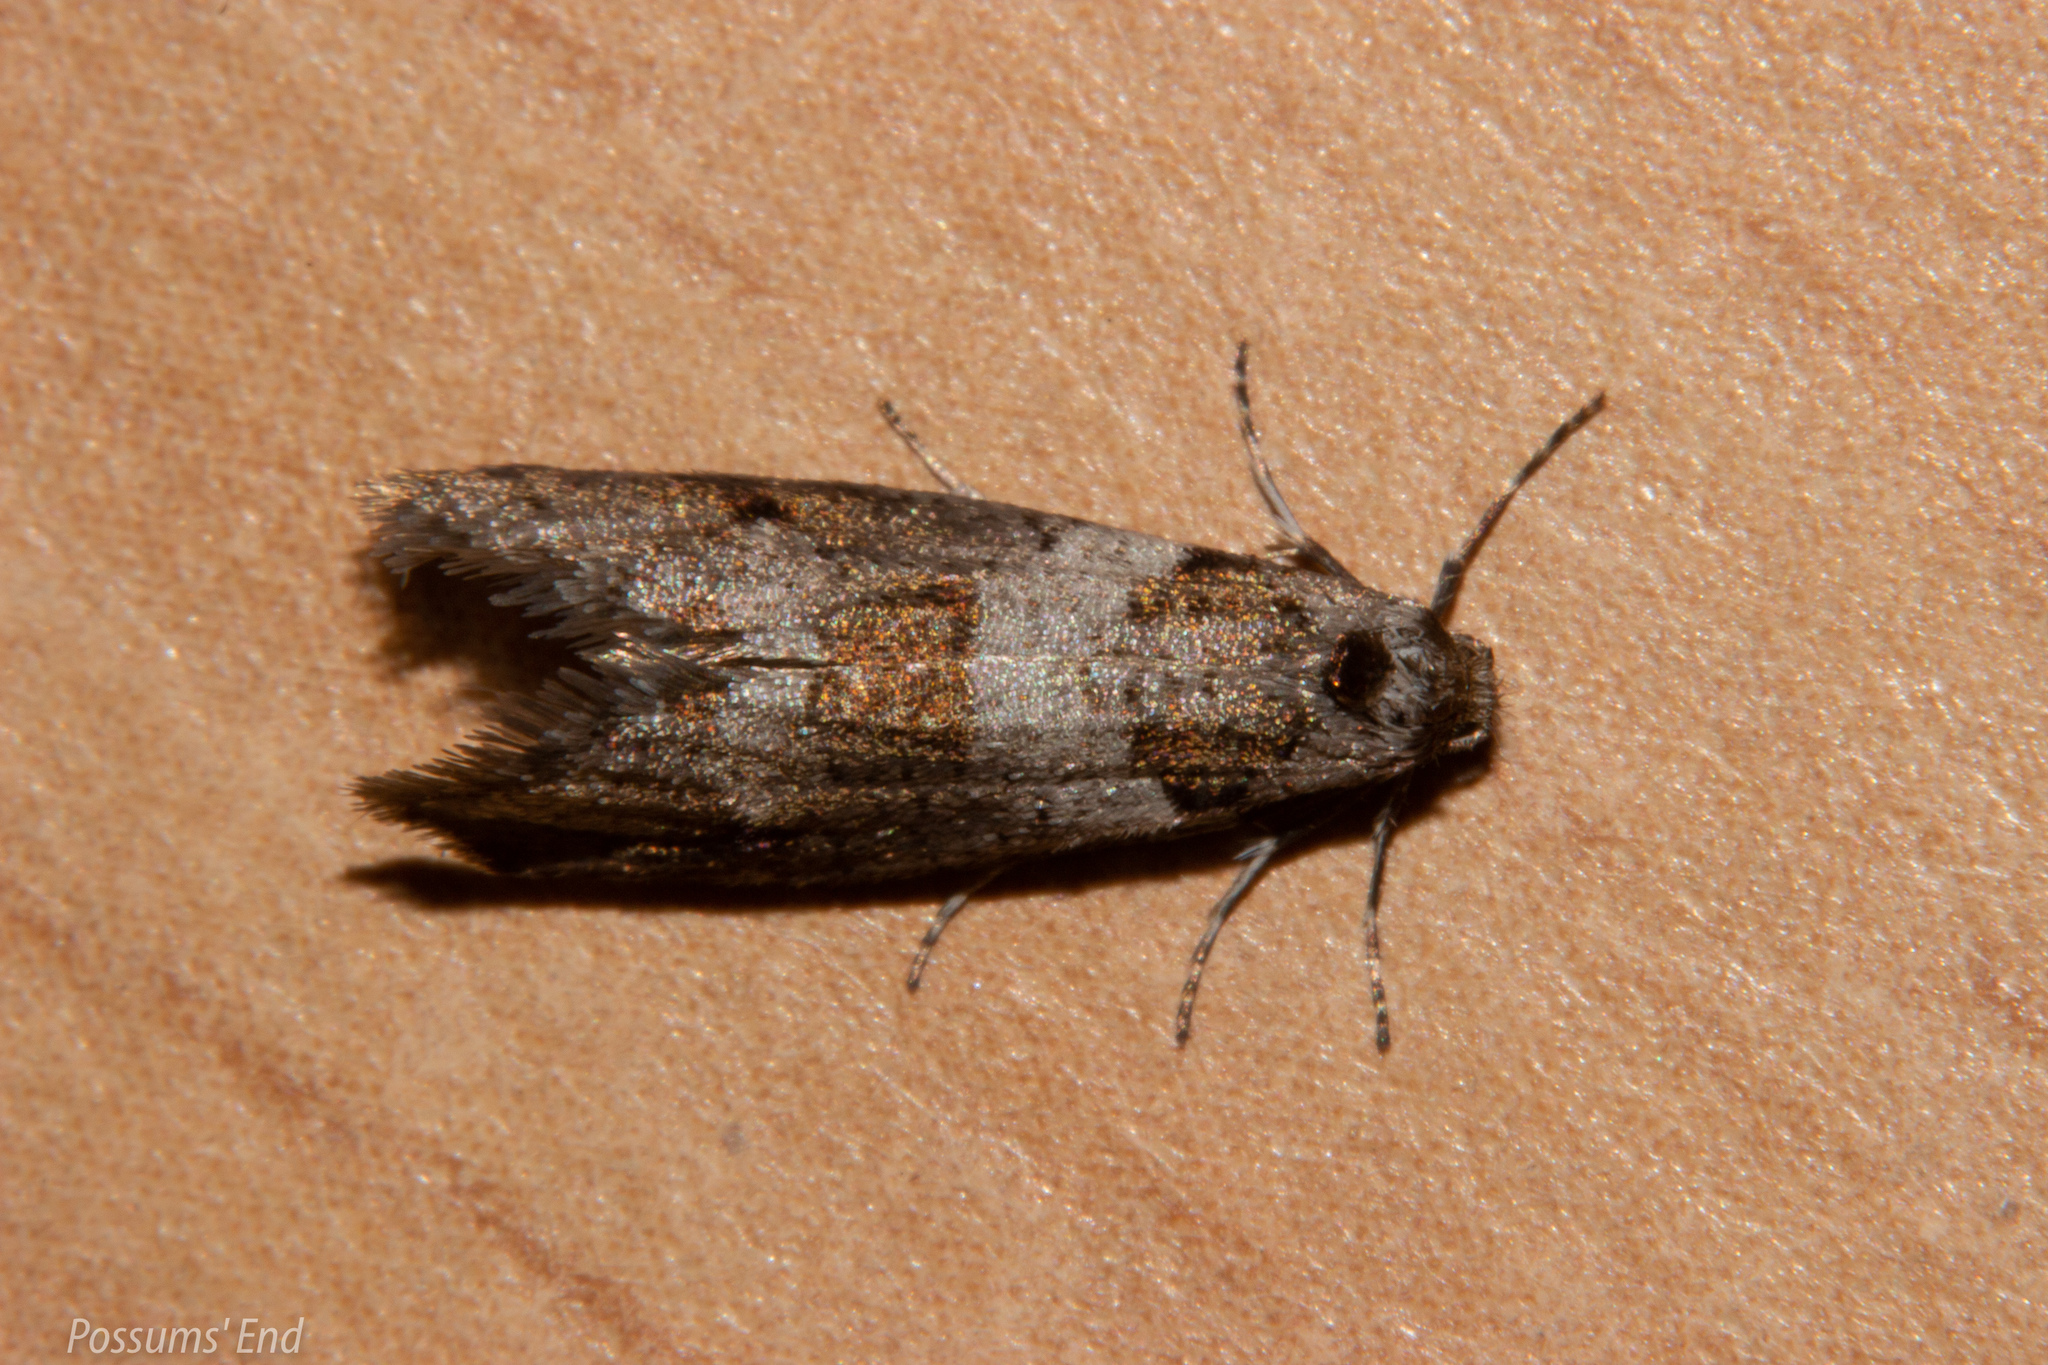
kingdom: Animalia
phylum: Arthropoda
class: Insecta
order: Lepidoptera
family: Psychidae
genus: Lepidoscia
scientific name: Lepidoscia heliochares
